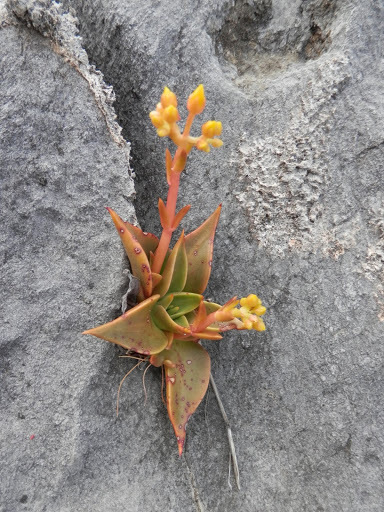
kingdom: Plantae
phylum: Tracheophyta
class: Magnoliopsida
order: Saxifragales
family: Crassulaceae
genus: Dudleya
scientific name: Dudleya cymosa
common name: Canyon dudleya
